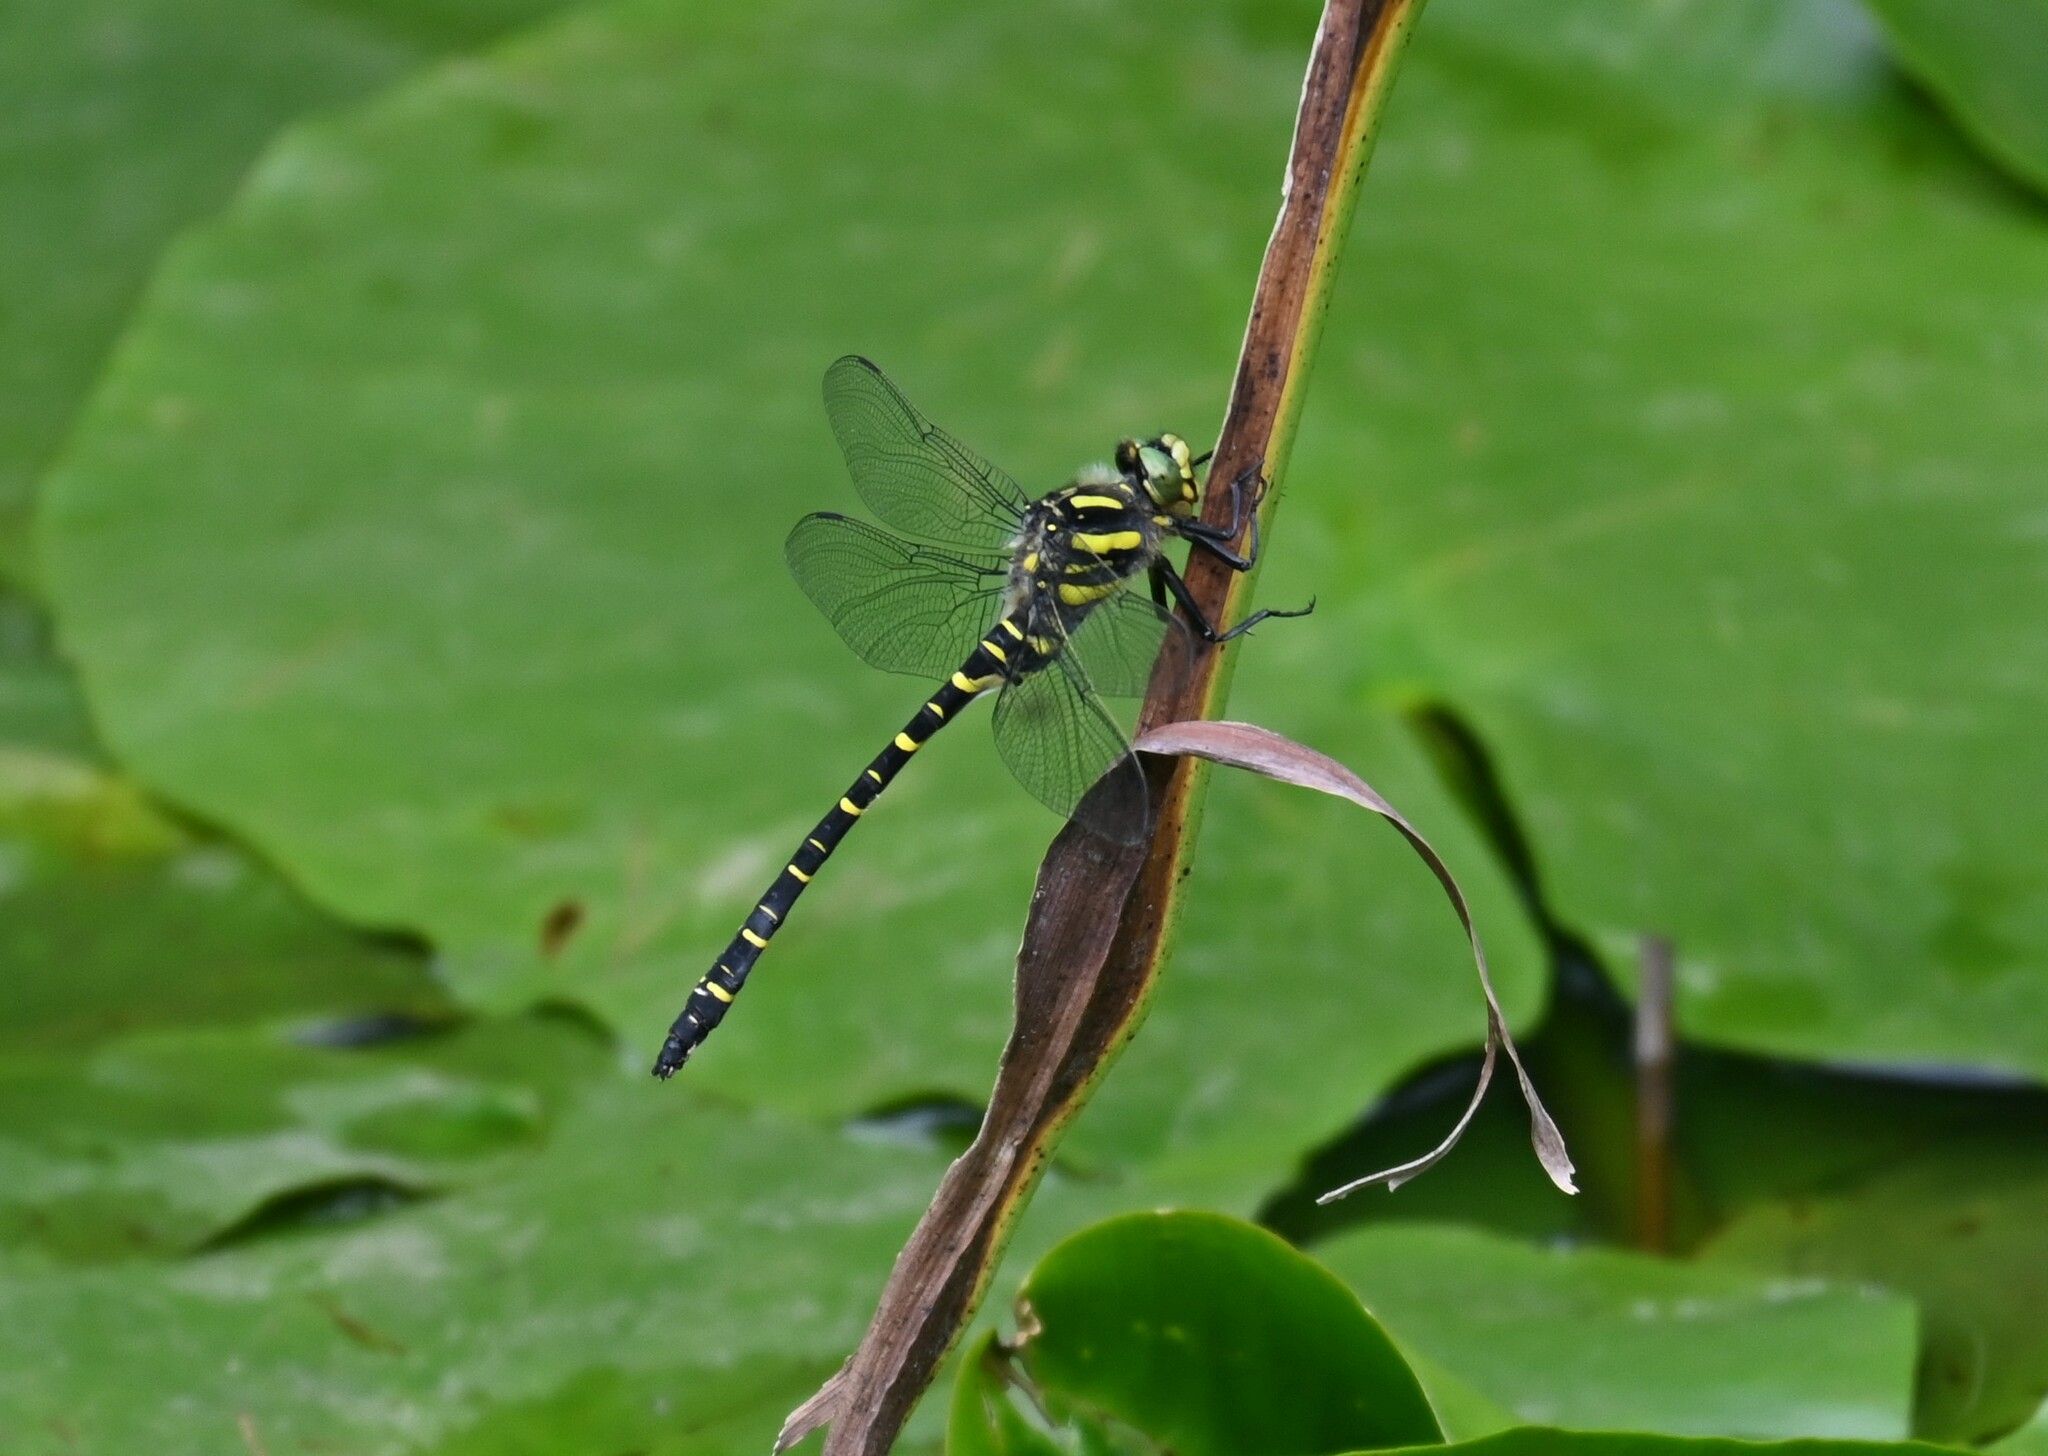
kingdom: Animalia
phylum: Arthropoda
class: Insecta
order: Odonata
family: Cordulegastridae
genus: Cordulegaster
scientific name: Cordulegaster boltonii
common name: Golden-ringed dragonfly
